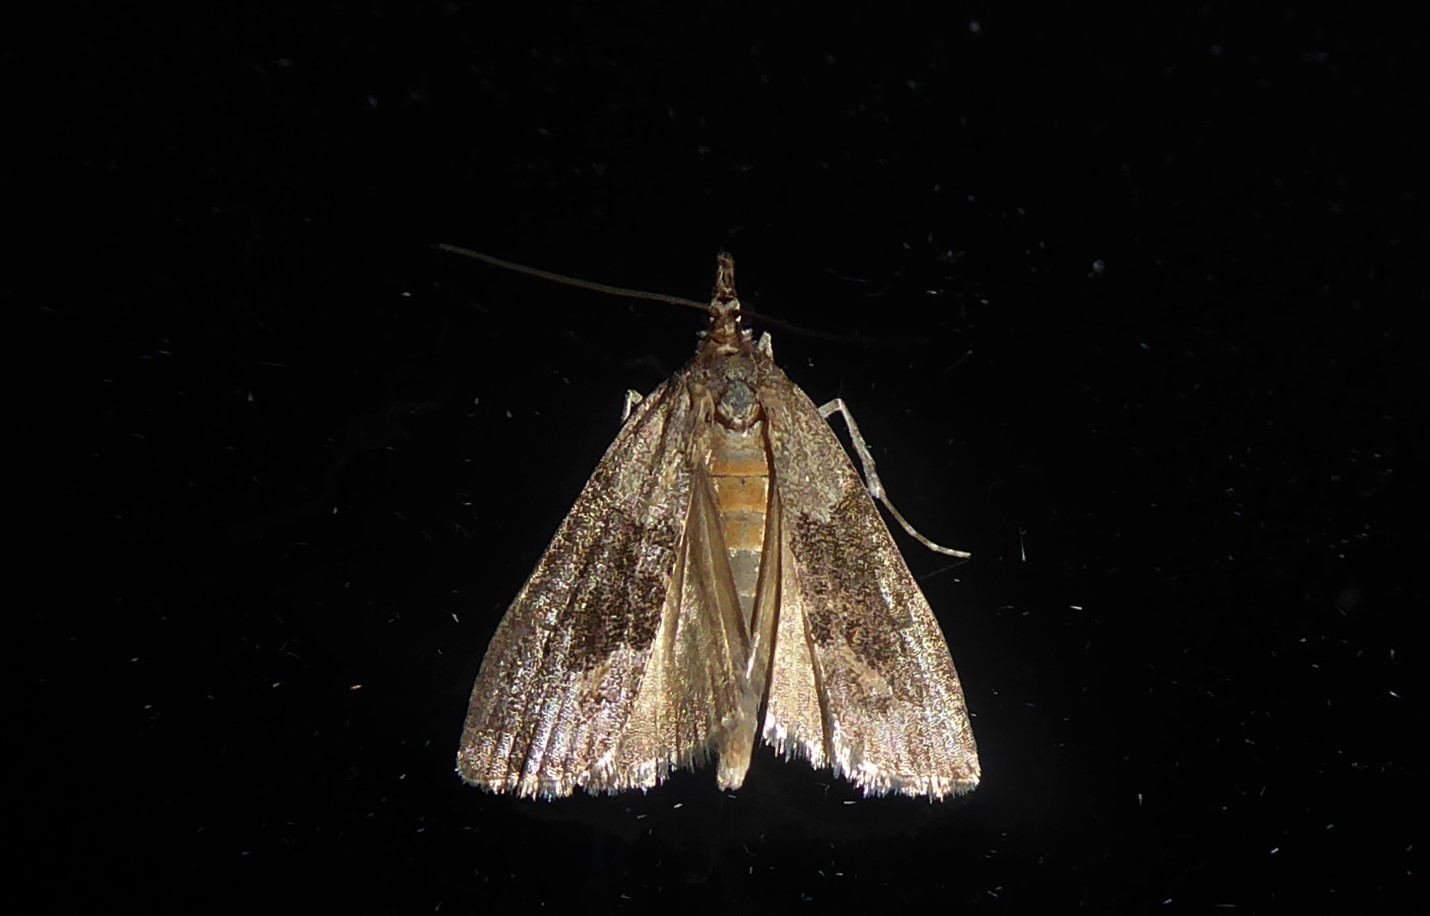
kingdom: Animalia
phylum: Arthropoda
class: Insecta
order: Lepidoptera
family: Crambidae
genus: Eudonia
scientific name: Eudonia submarginalis
